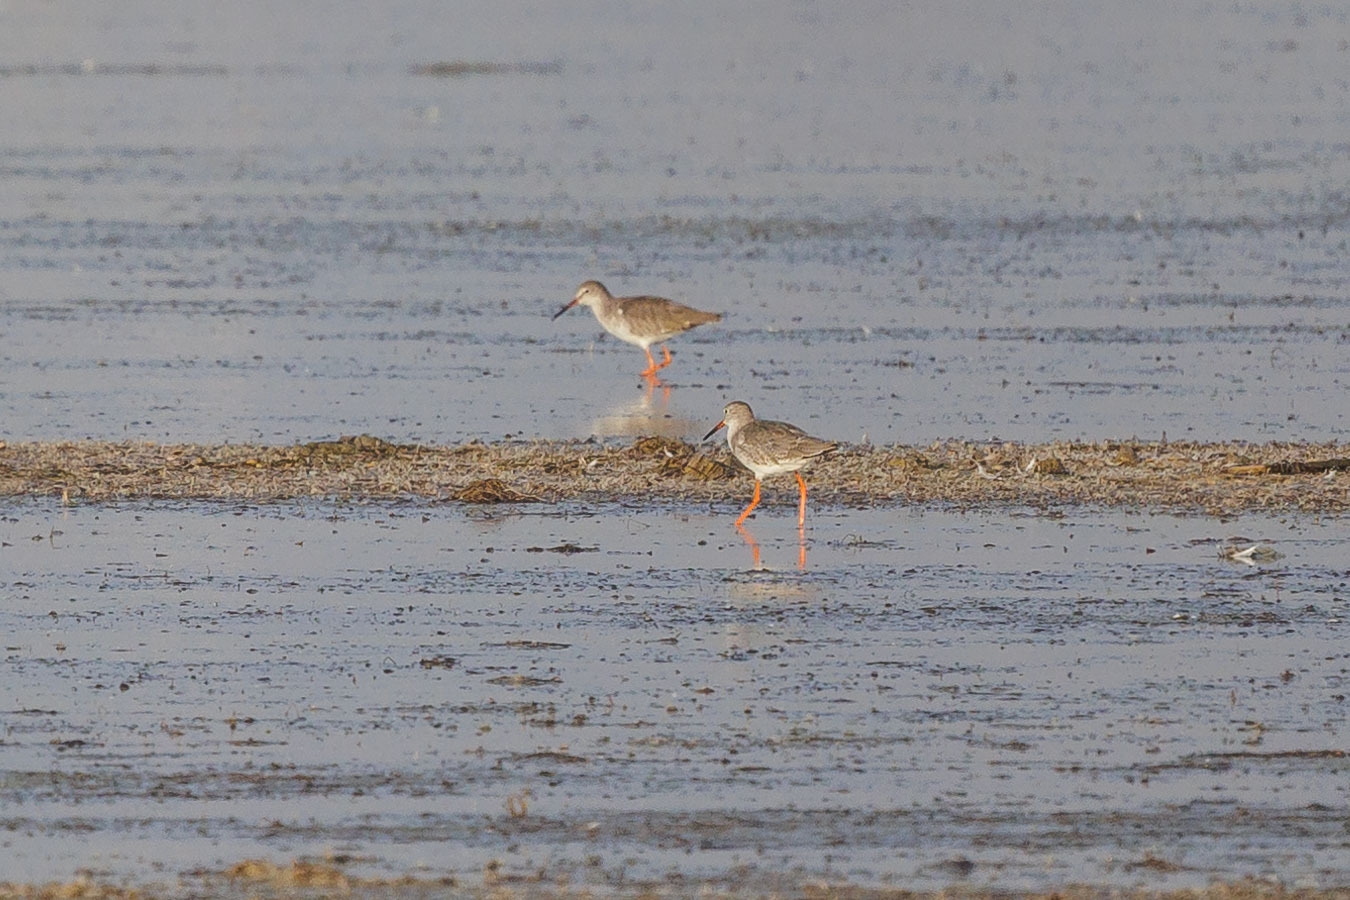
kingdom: Animalia
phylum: Chordata
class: Aves
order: Charadriiformes
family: Scolopacidae
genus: Tringa
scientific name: Tringa totanus
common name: Common redshank
